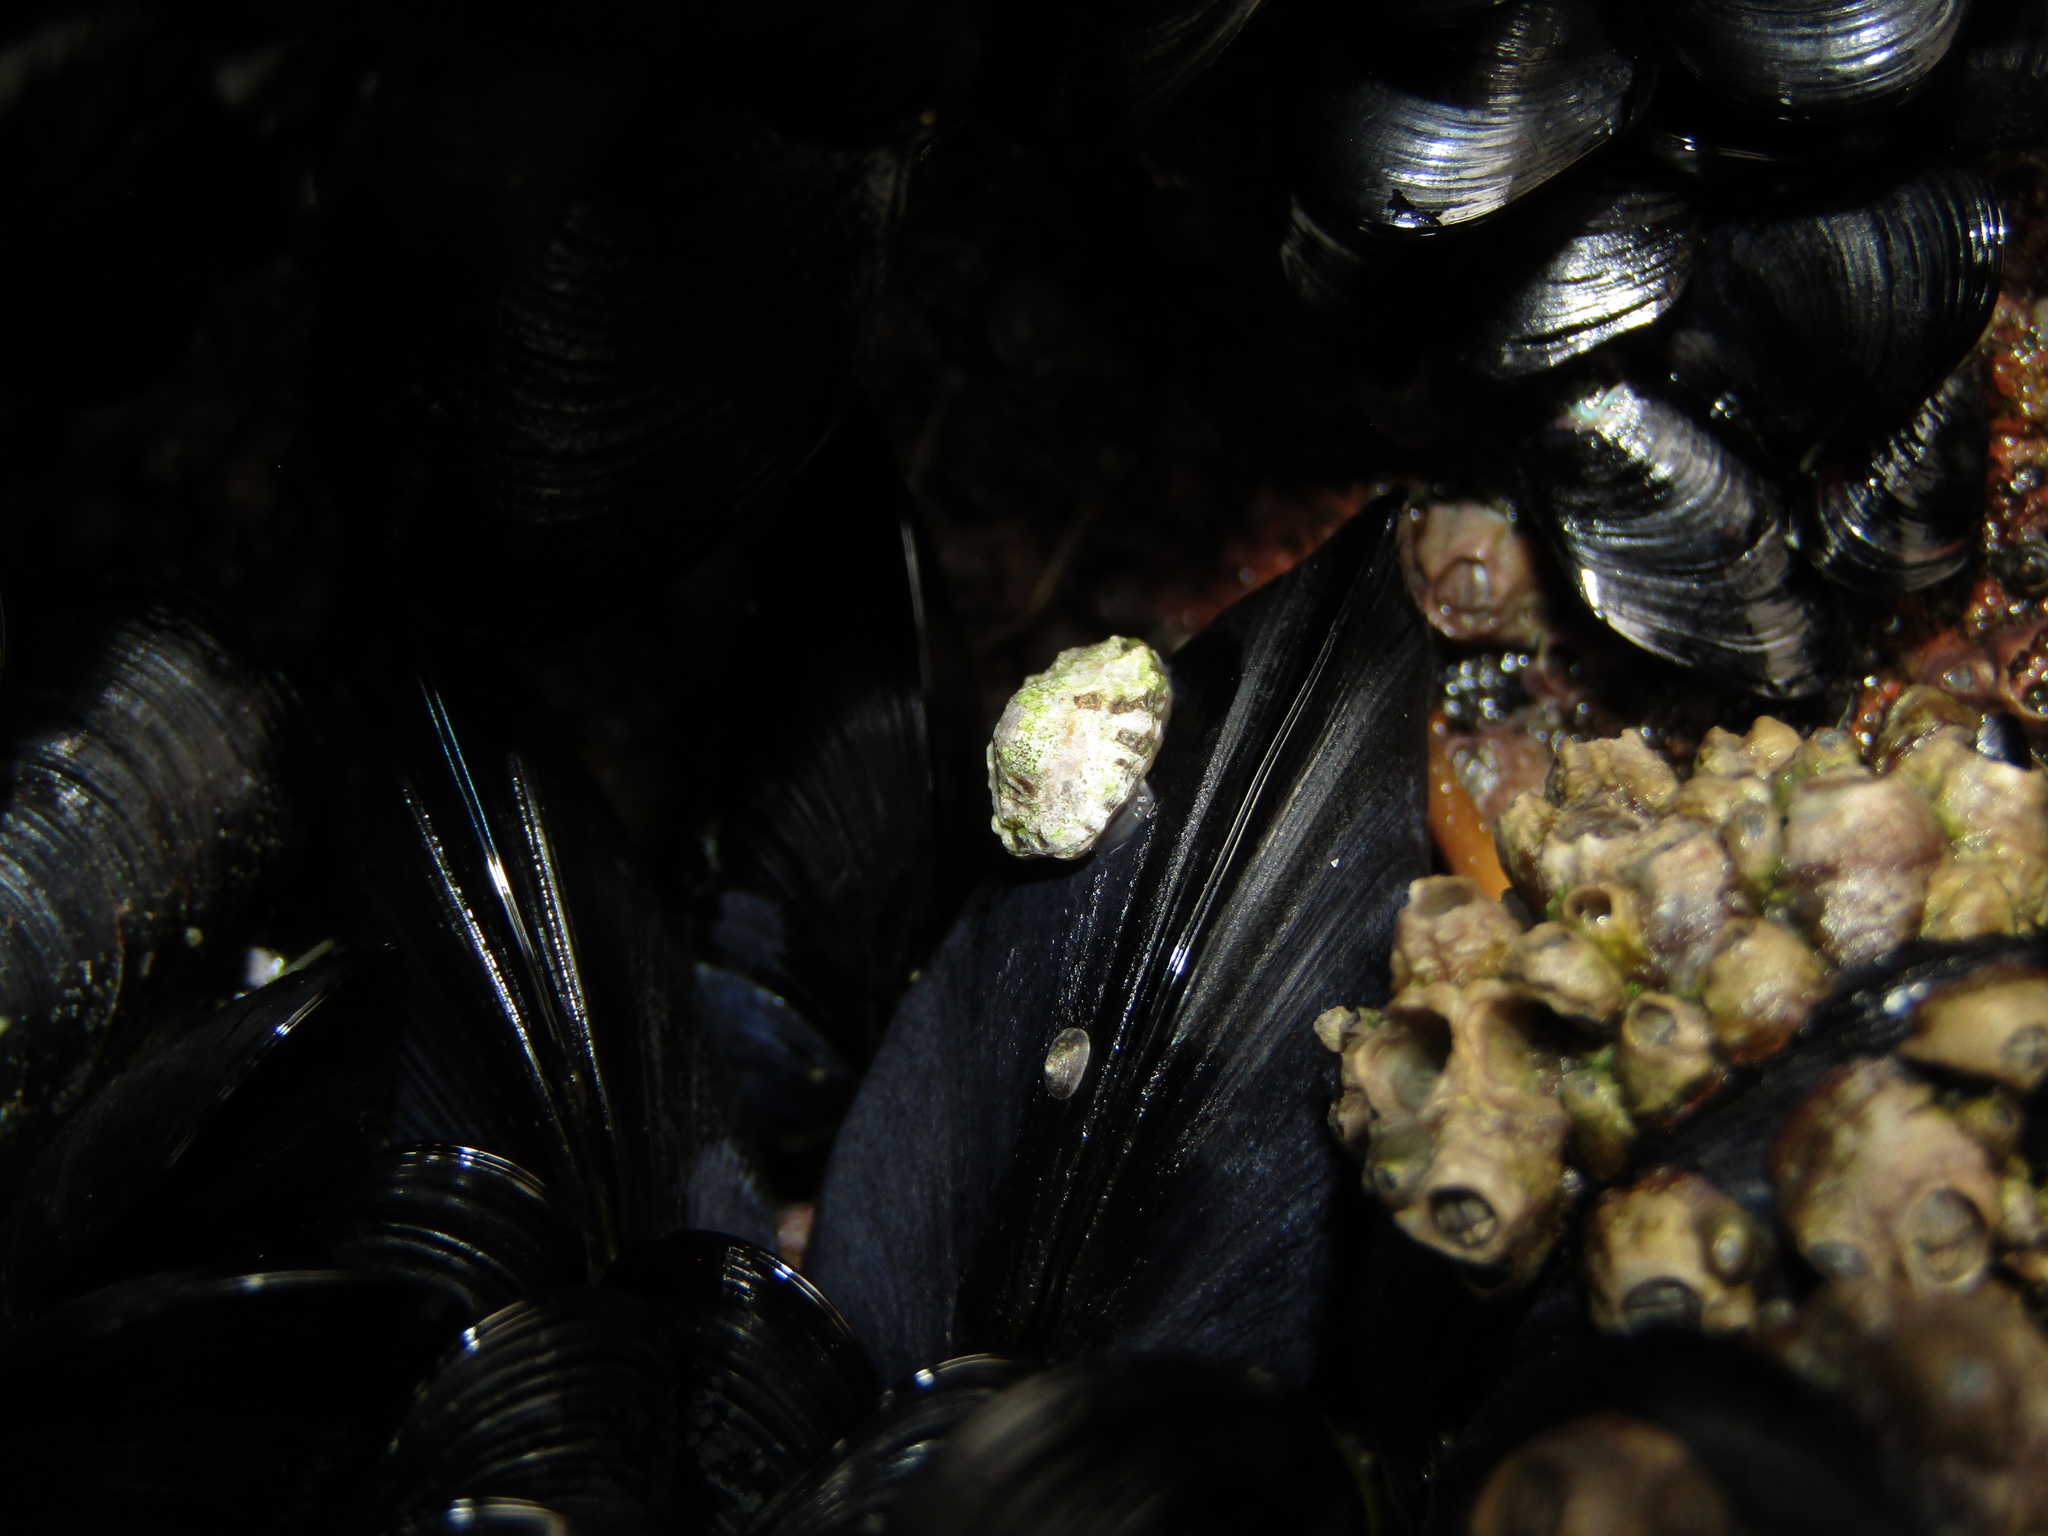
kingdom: Animalia
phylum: Mollusca
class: Gastropoda
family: Lottiidae
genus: Notoacmea
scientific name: Notoacmea scopulina
